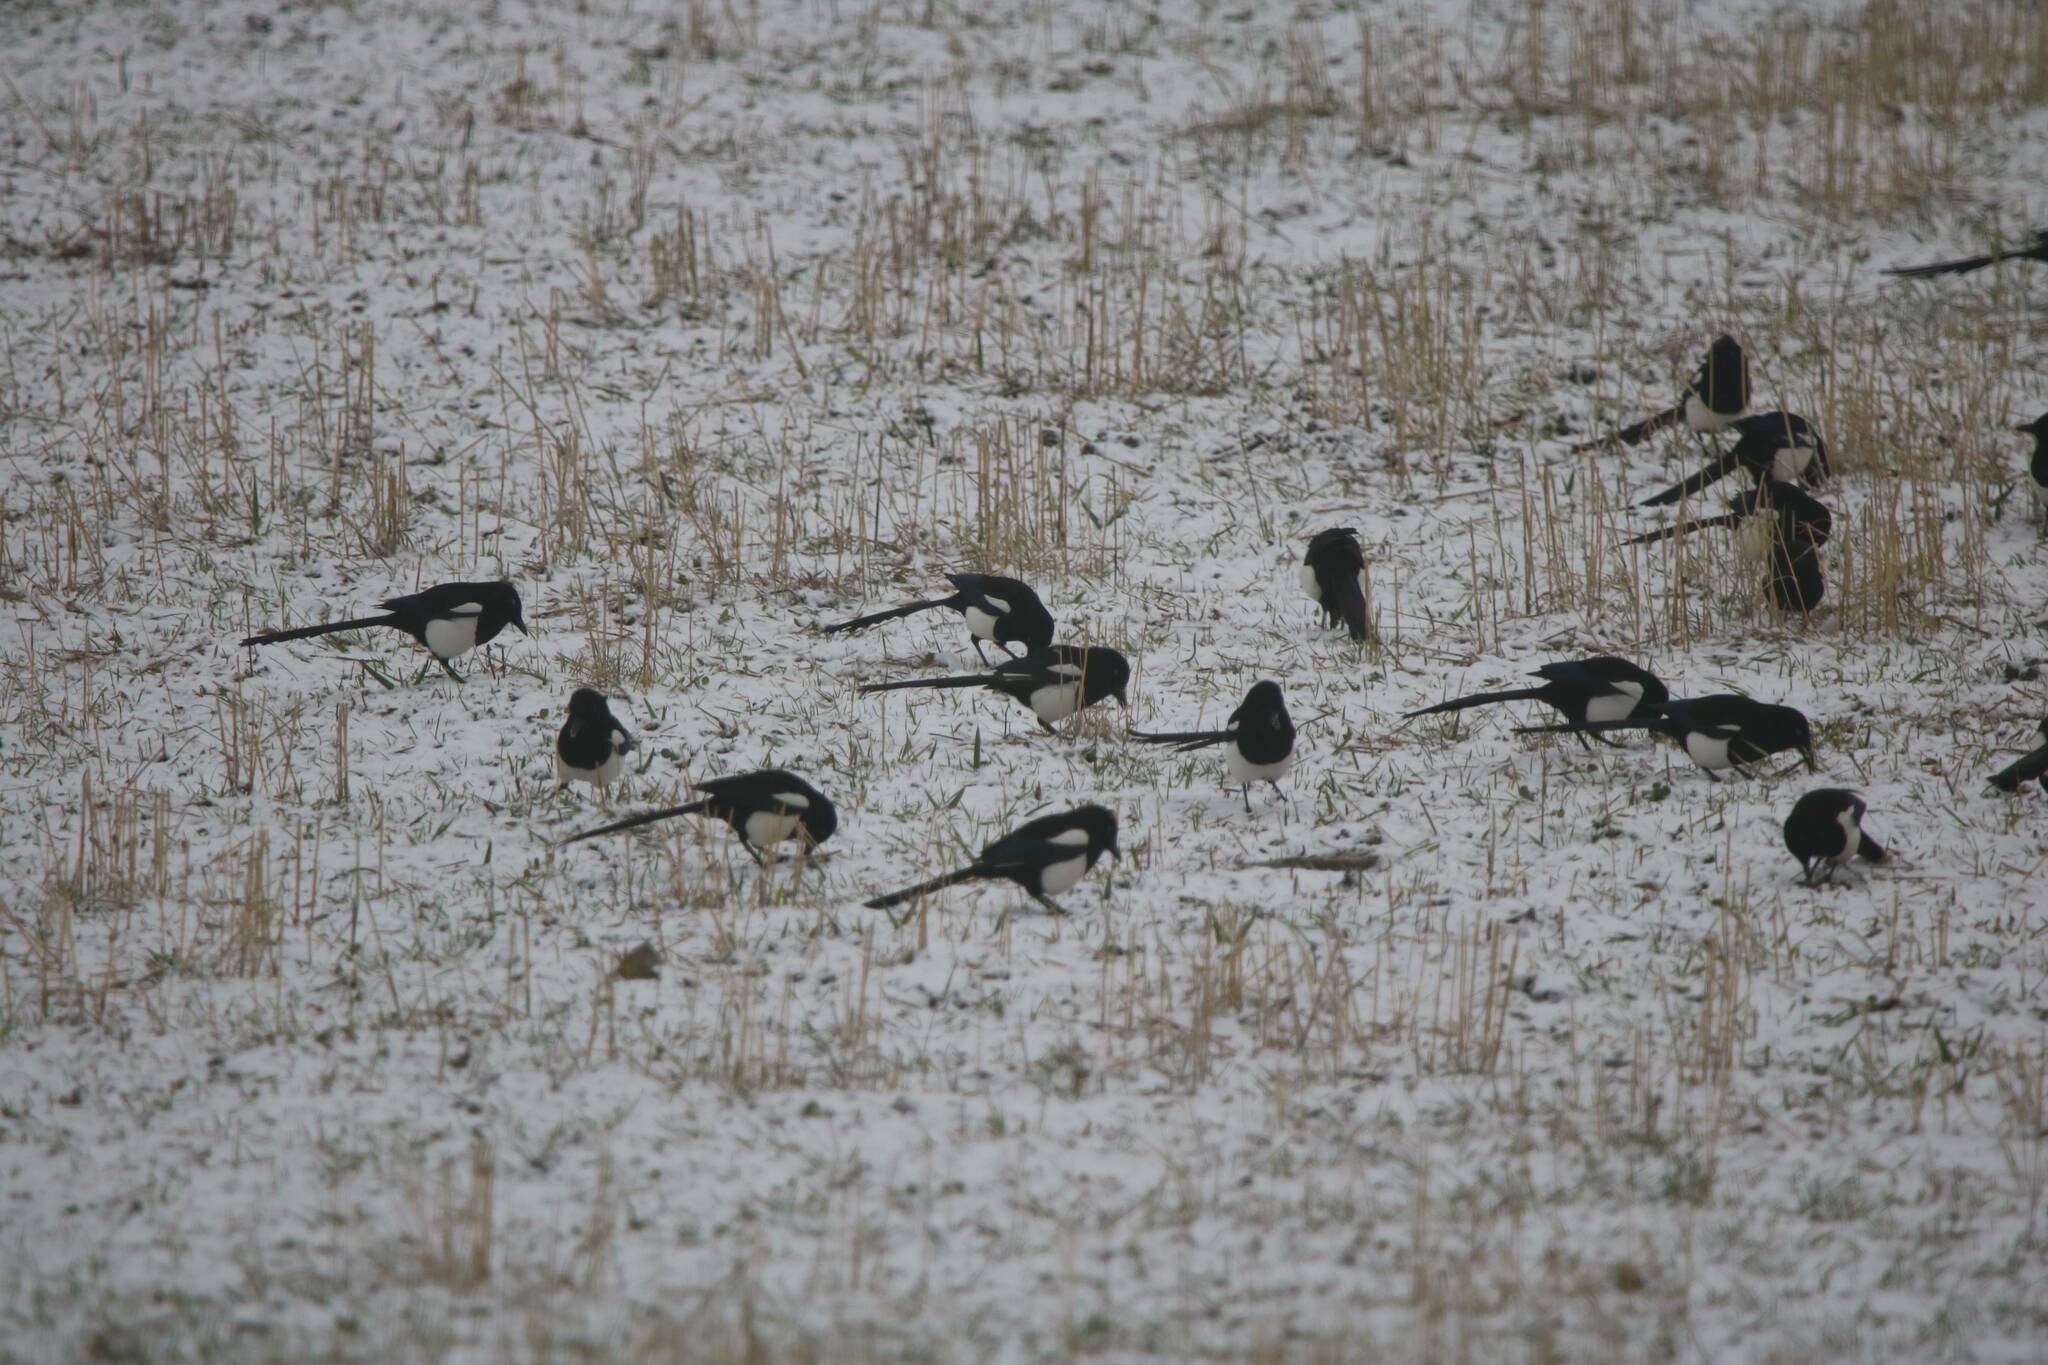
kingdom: Animalia
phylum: Chordata
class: Aves
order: Passeriformes
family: Corvidae
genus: Pica
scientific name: Pica mauritanica
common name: Maghreb magpie
